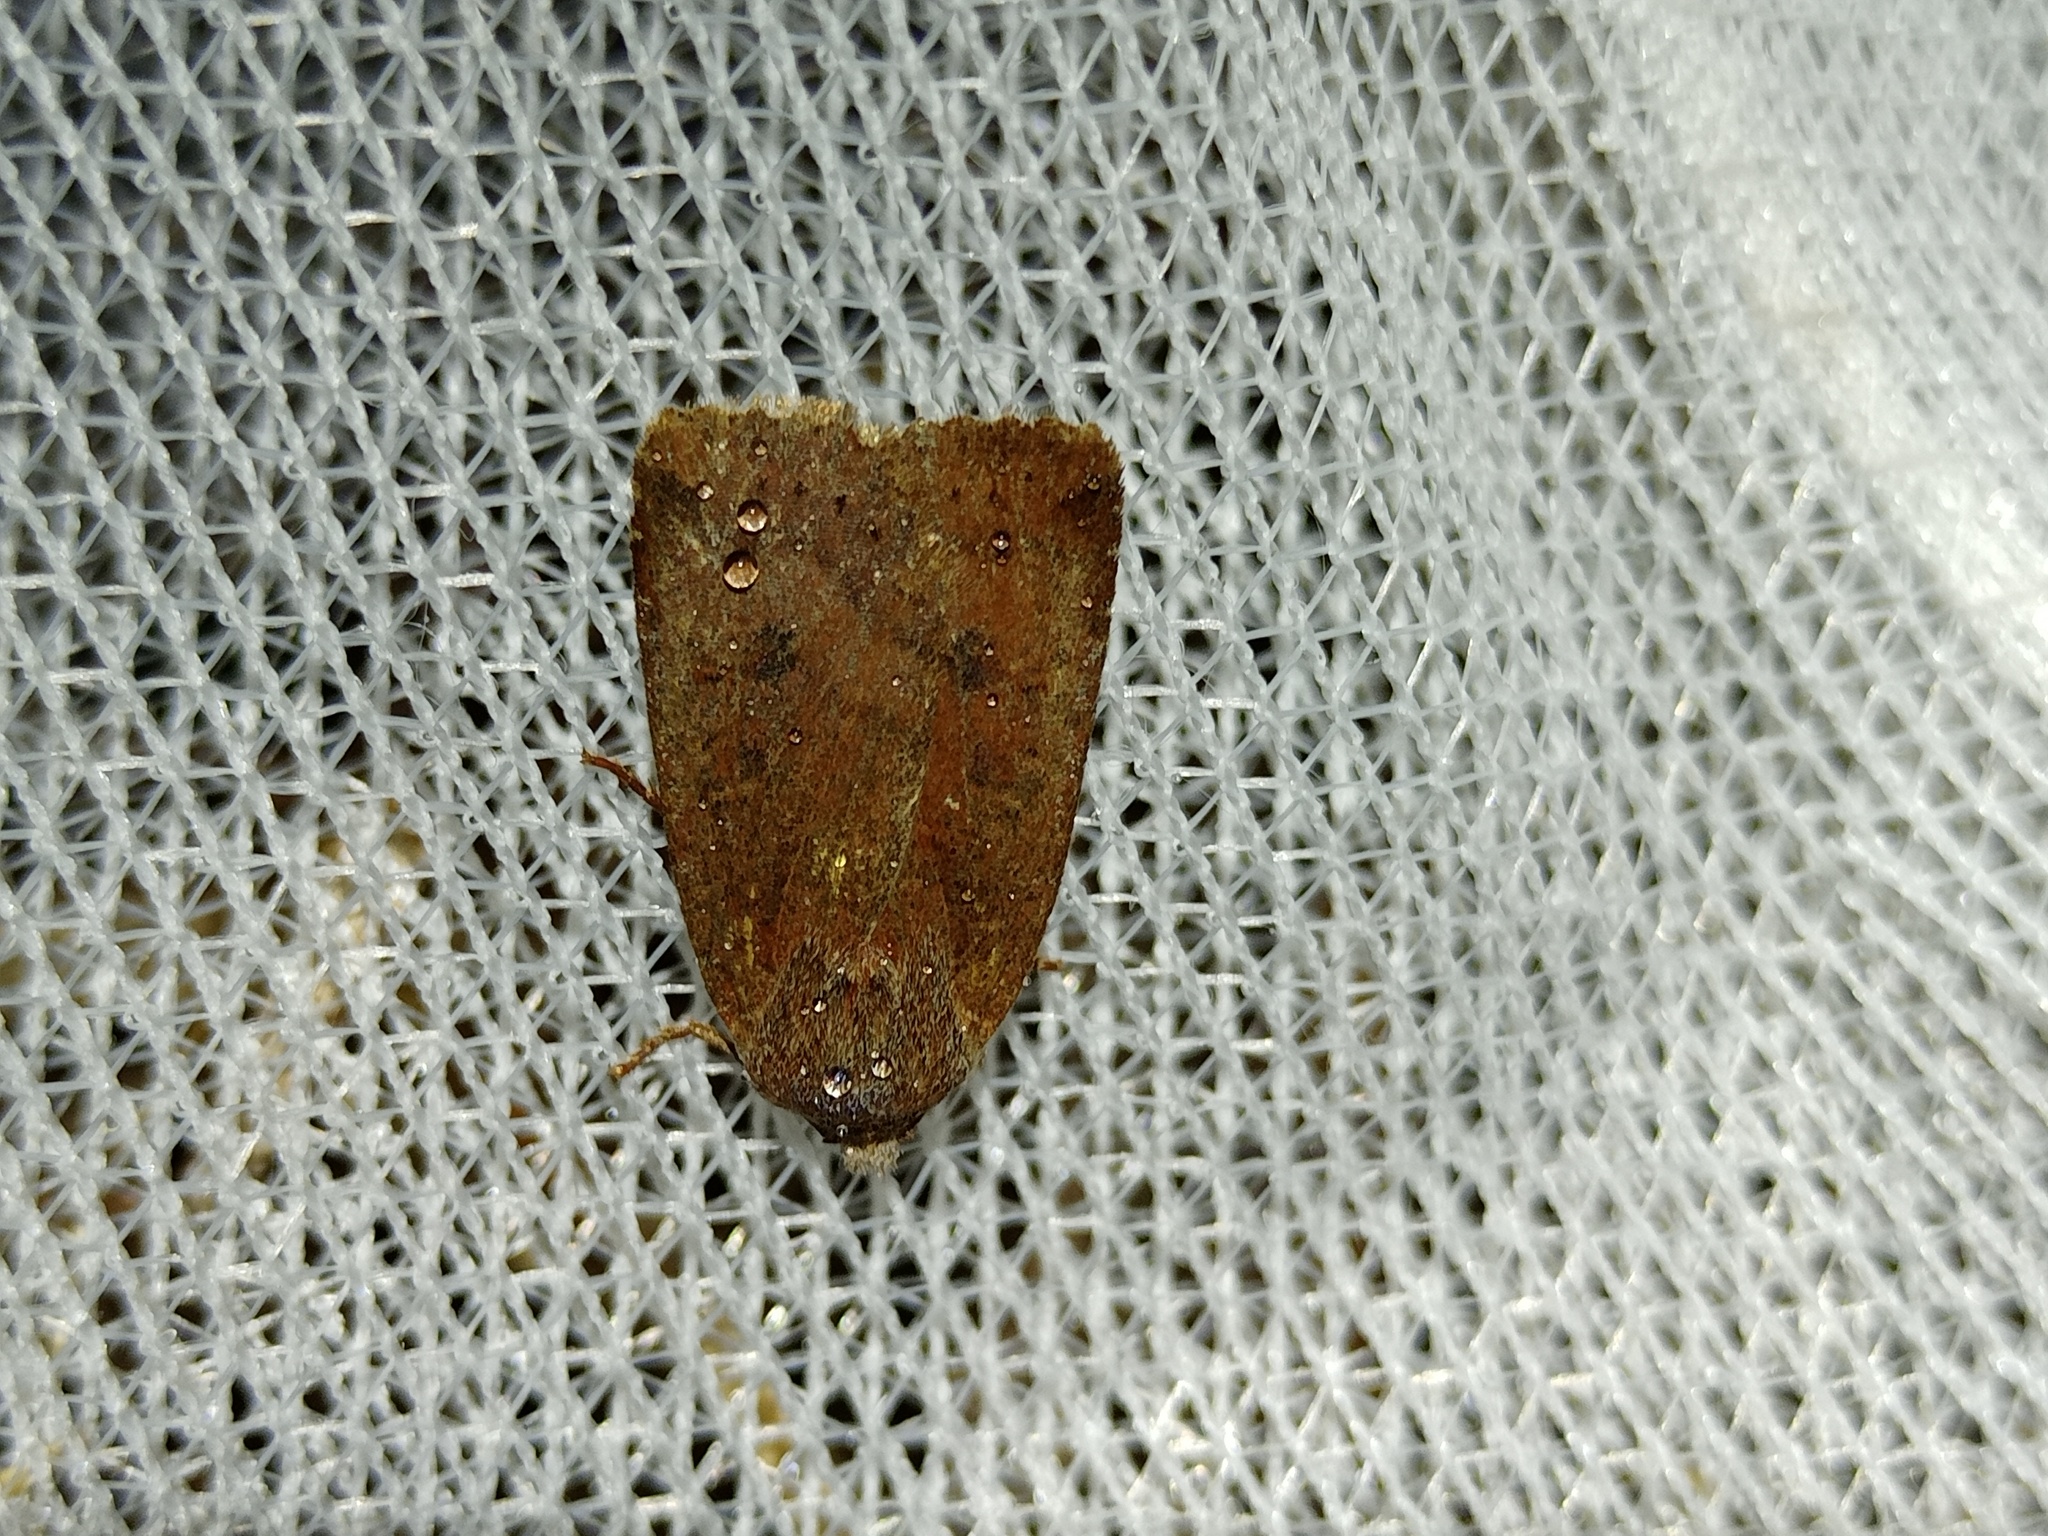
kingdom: Animalia
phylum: Arthropoda
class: Insecta
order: Lepidoptera
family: Noctuidae
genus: Conistra
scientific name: Conistra vaccinii
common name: Chestnut
